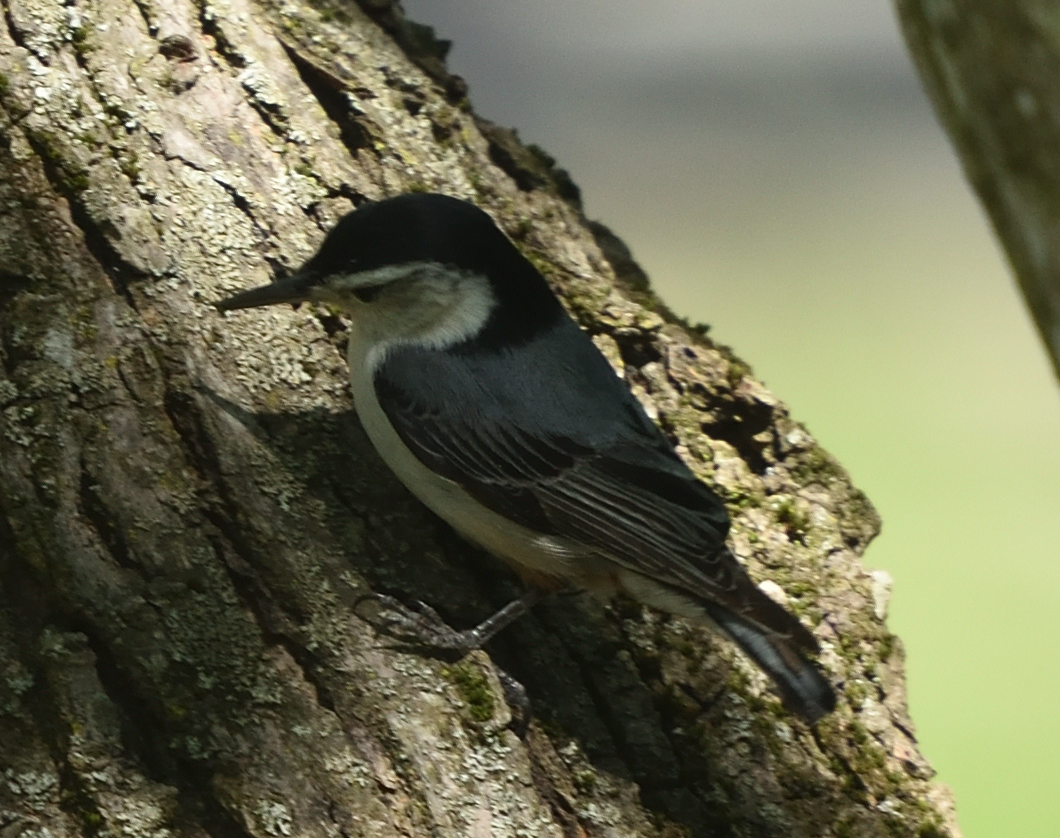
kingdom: Animalia
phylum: Chordata
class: Aves
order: Passeriformes
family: Sittidae
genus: Sitta
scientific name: Sitta carolinensis
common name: White-breasted nuthatch
